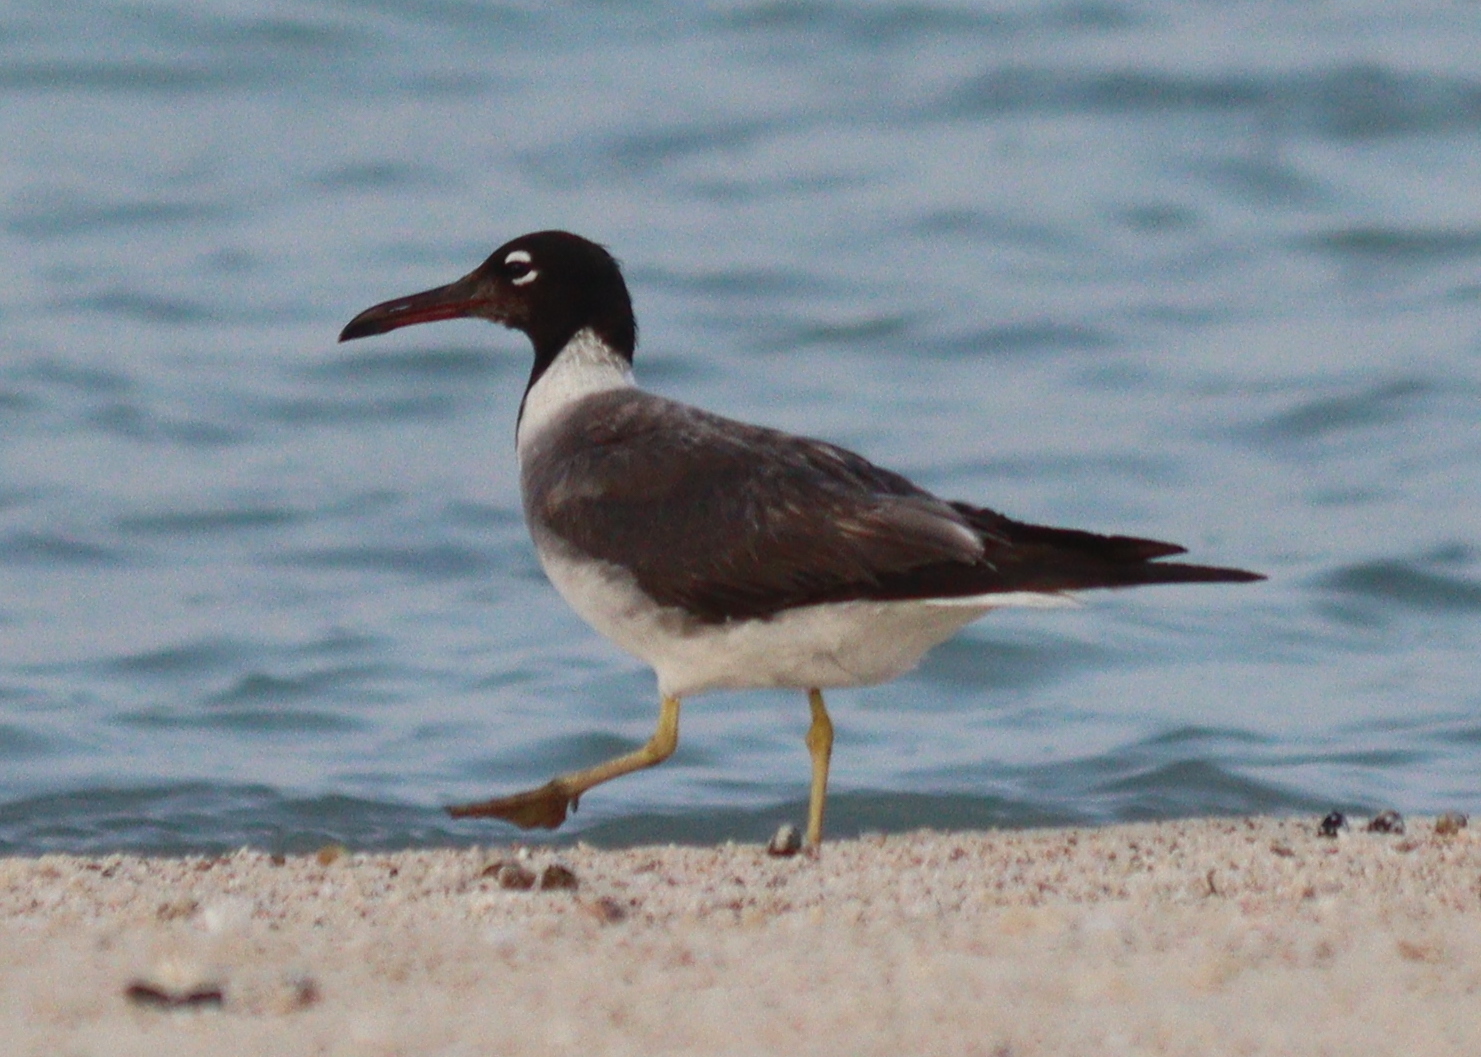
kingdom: Animalia
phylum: Chordata
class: Aves
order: Charadriiformes
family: Laridae
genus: Ichthyaetus
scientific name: Ichthyaetus leucophthalmus
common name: White-eyed gull
